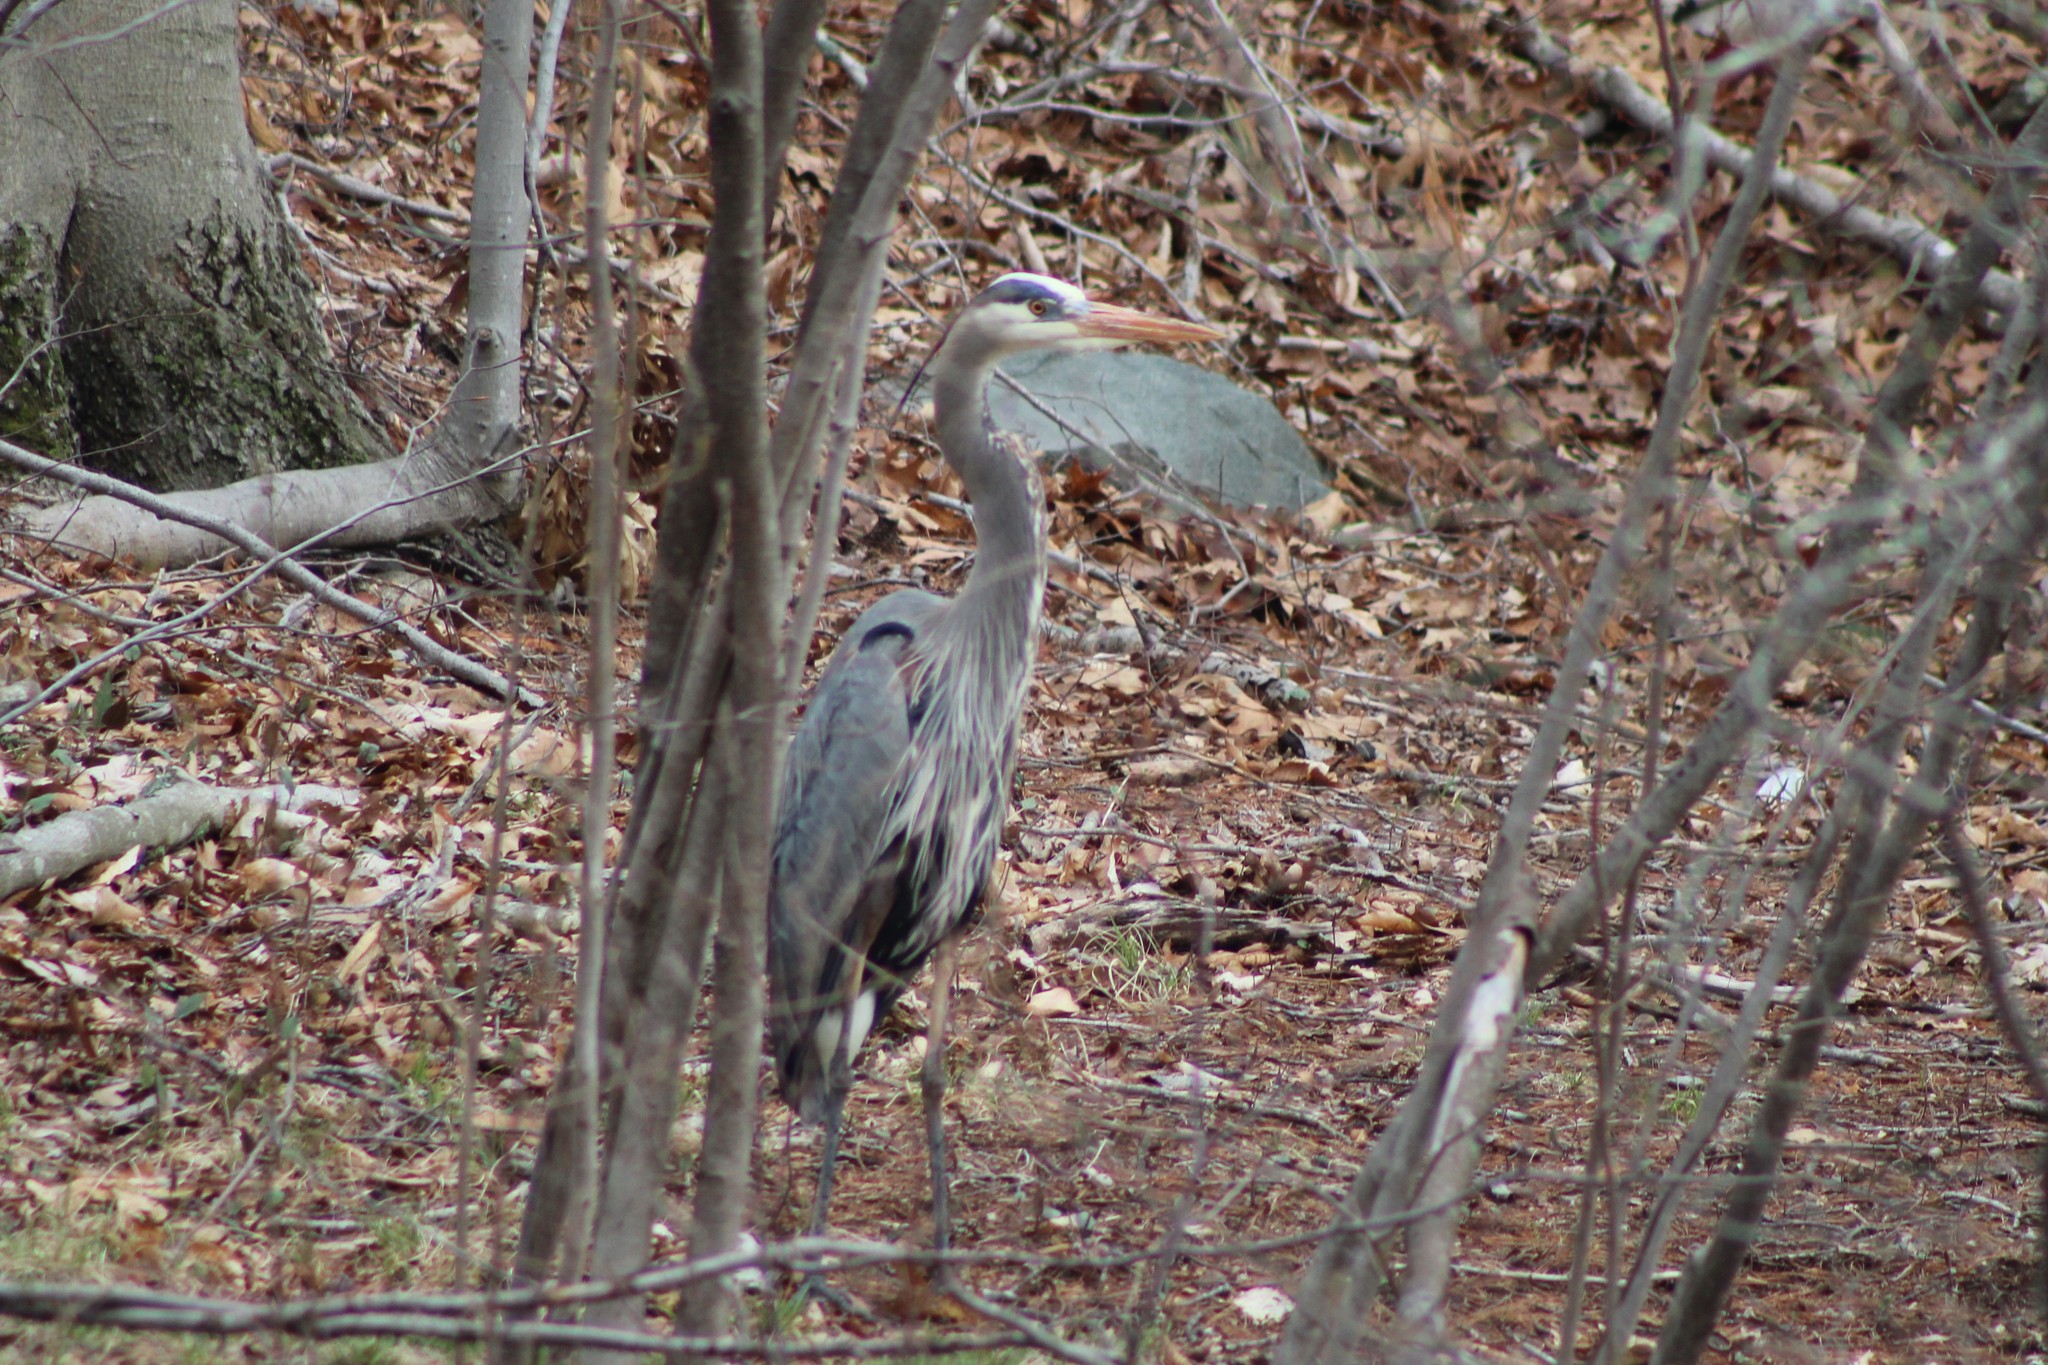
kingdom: Animalia
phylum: Chordata
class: Aves
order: Pelecaniformes
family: Ardeidae
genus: Ardea
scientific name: Ardea herodias
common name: Great blue heron
